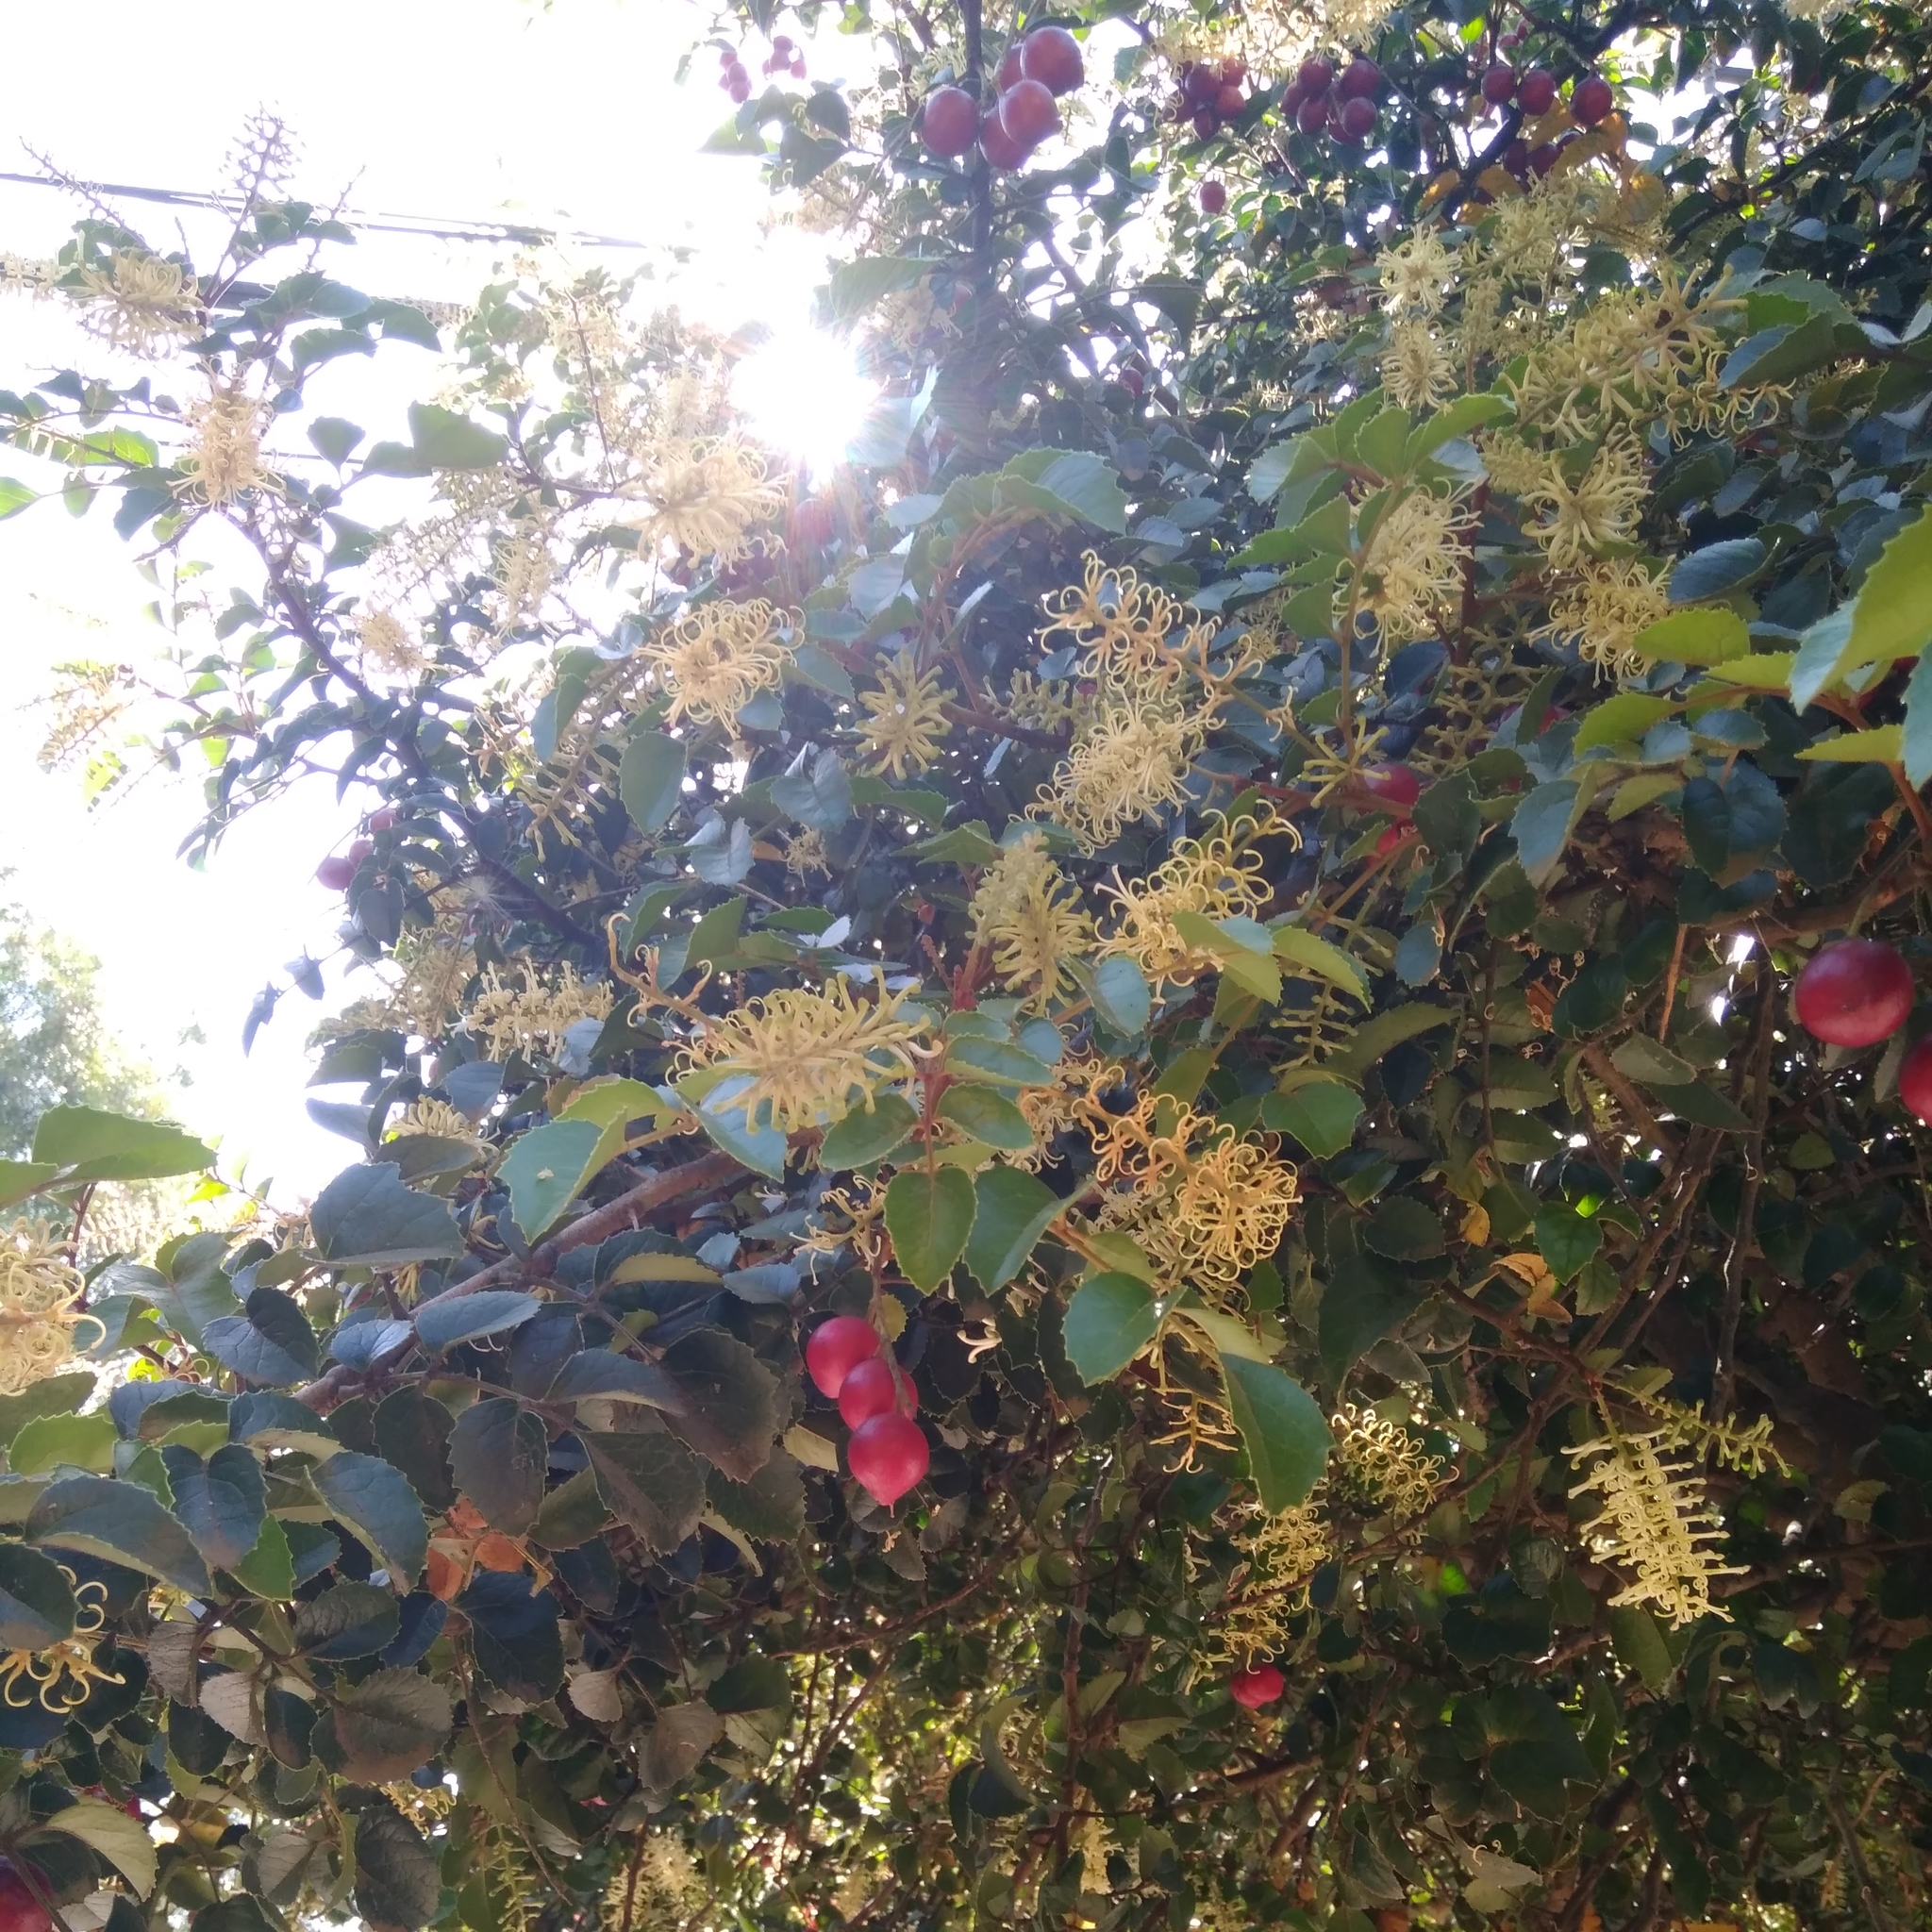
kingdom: Plantae
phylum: Tracheophyta
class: Magnoliopsida
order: Proteales
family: Proteaceae
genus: Gevuina
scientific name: Gevuina avellana
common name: Chilean hazel
